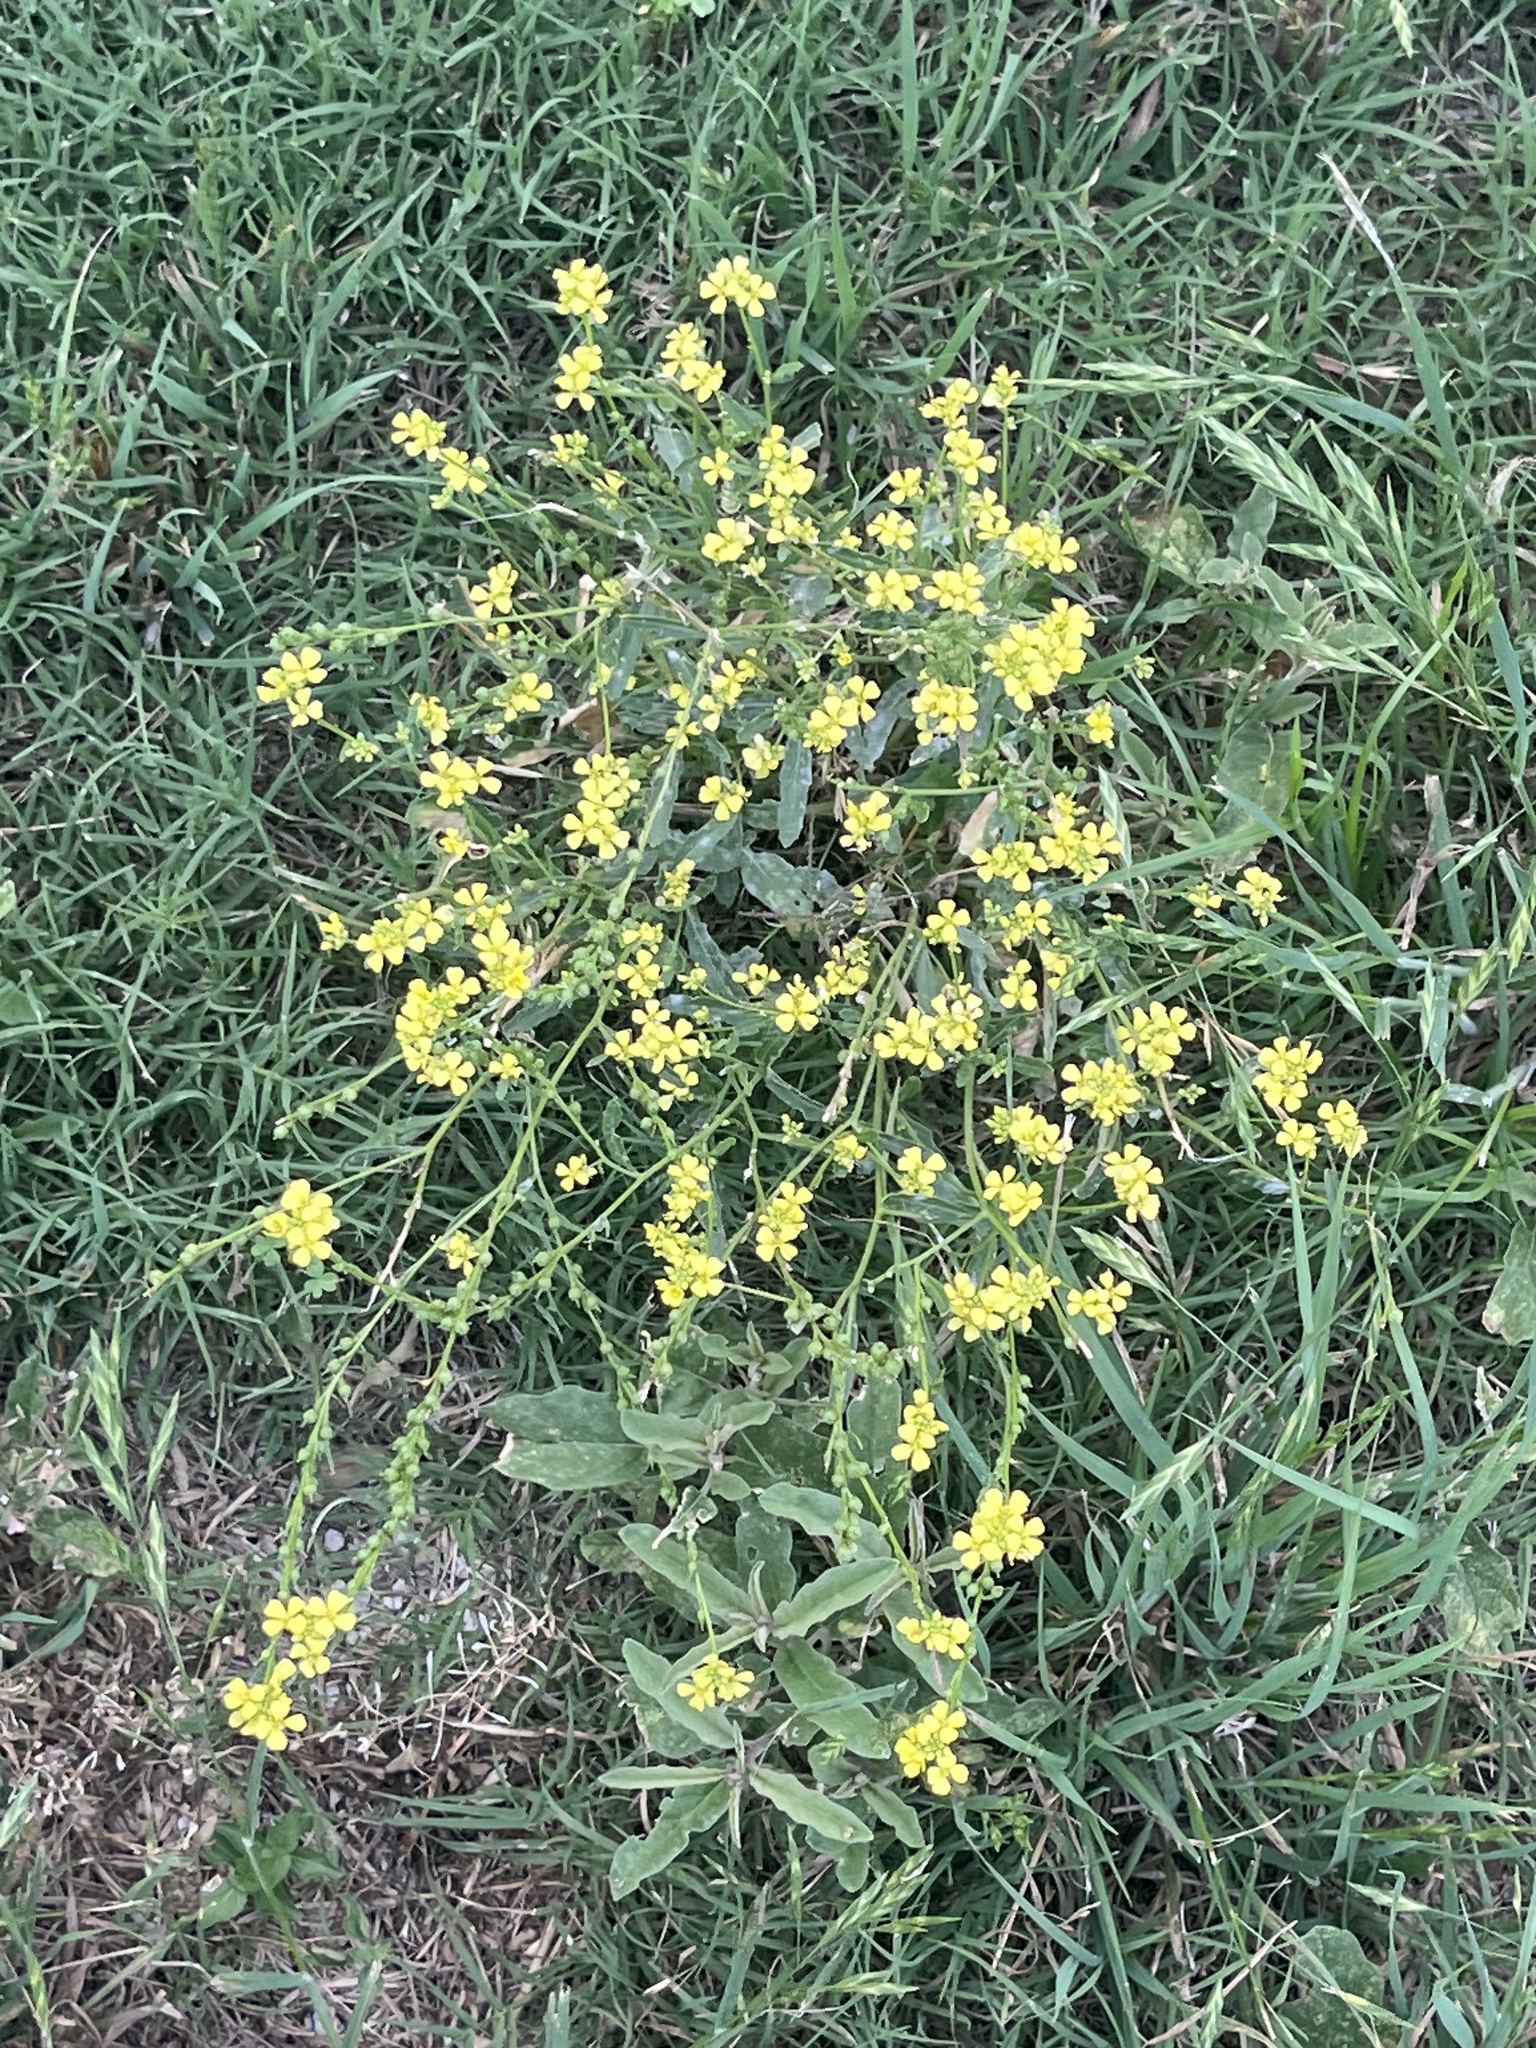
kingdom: Plantae
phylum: Tracheophyta
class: Magnoliopsida
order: Brassicales
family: Brassicaceae
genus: Rapistrum
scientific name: Rapistrum rugosum
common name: Annual bastardcabbage
